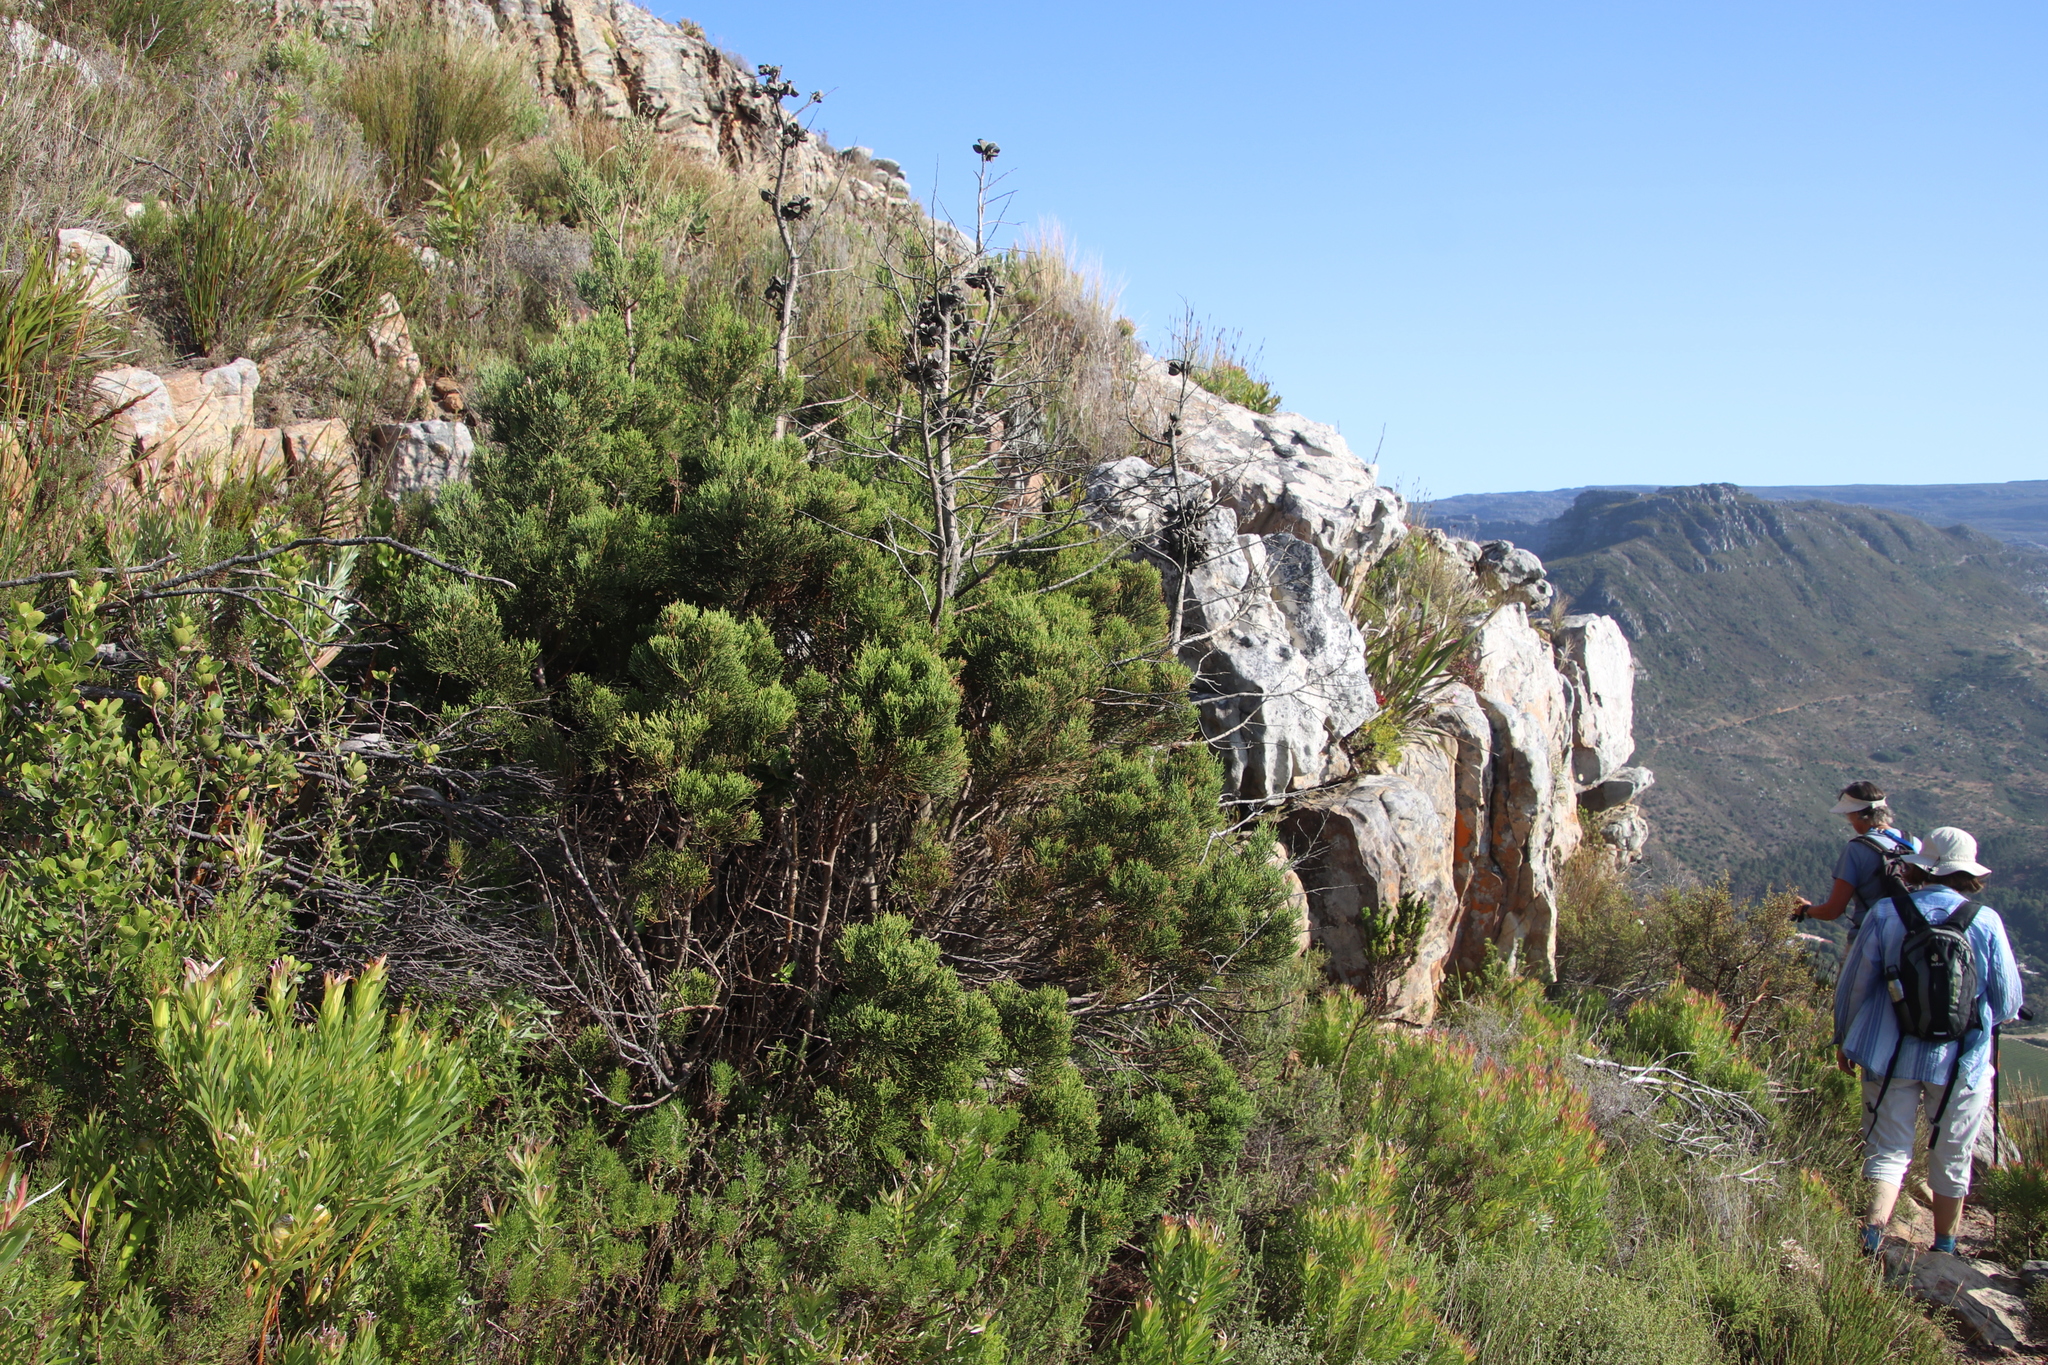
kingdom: Plantae
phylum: Tracheophyta
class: Pinopsida
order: Pinales
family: Cupressaceae
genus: Widdringtonia
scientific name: Widdringtonia nodiflora
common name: Cape cypress
